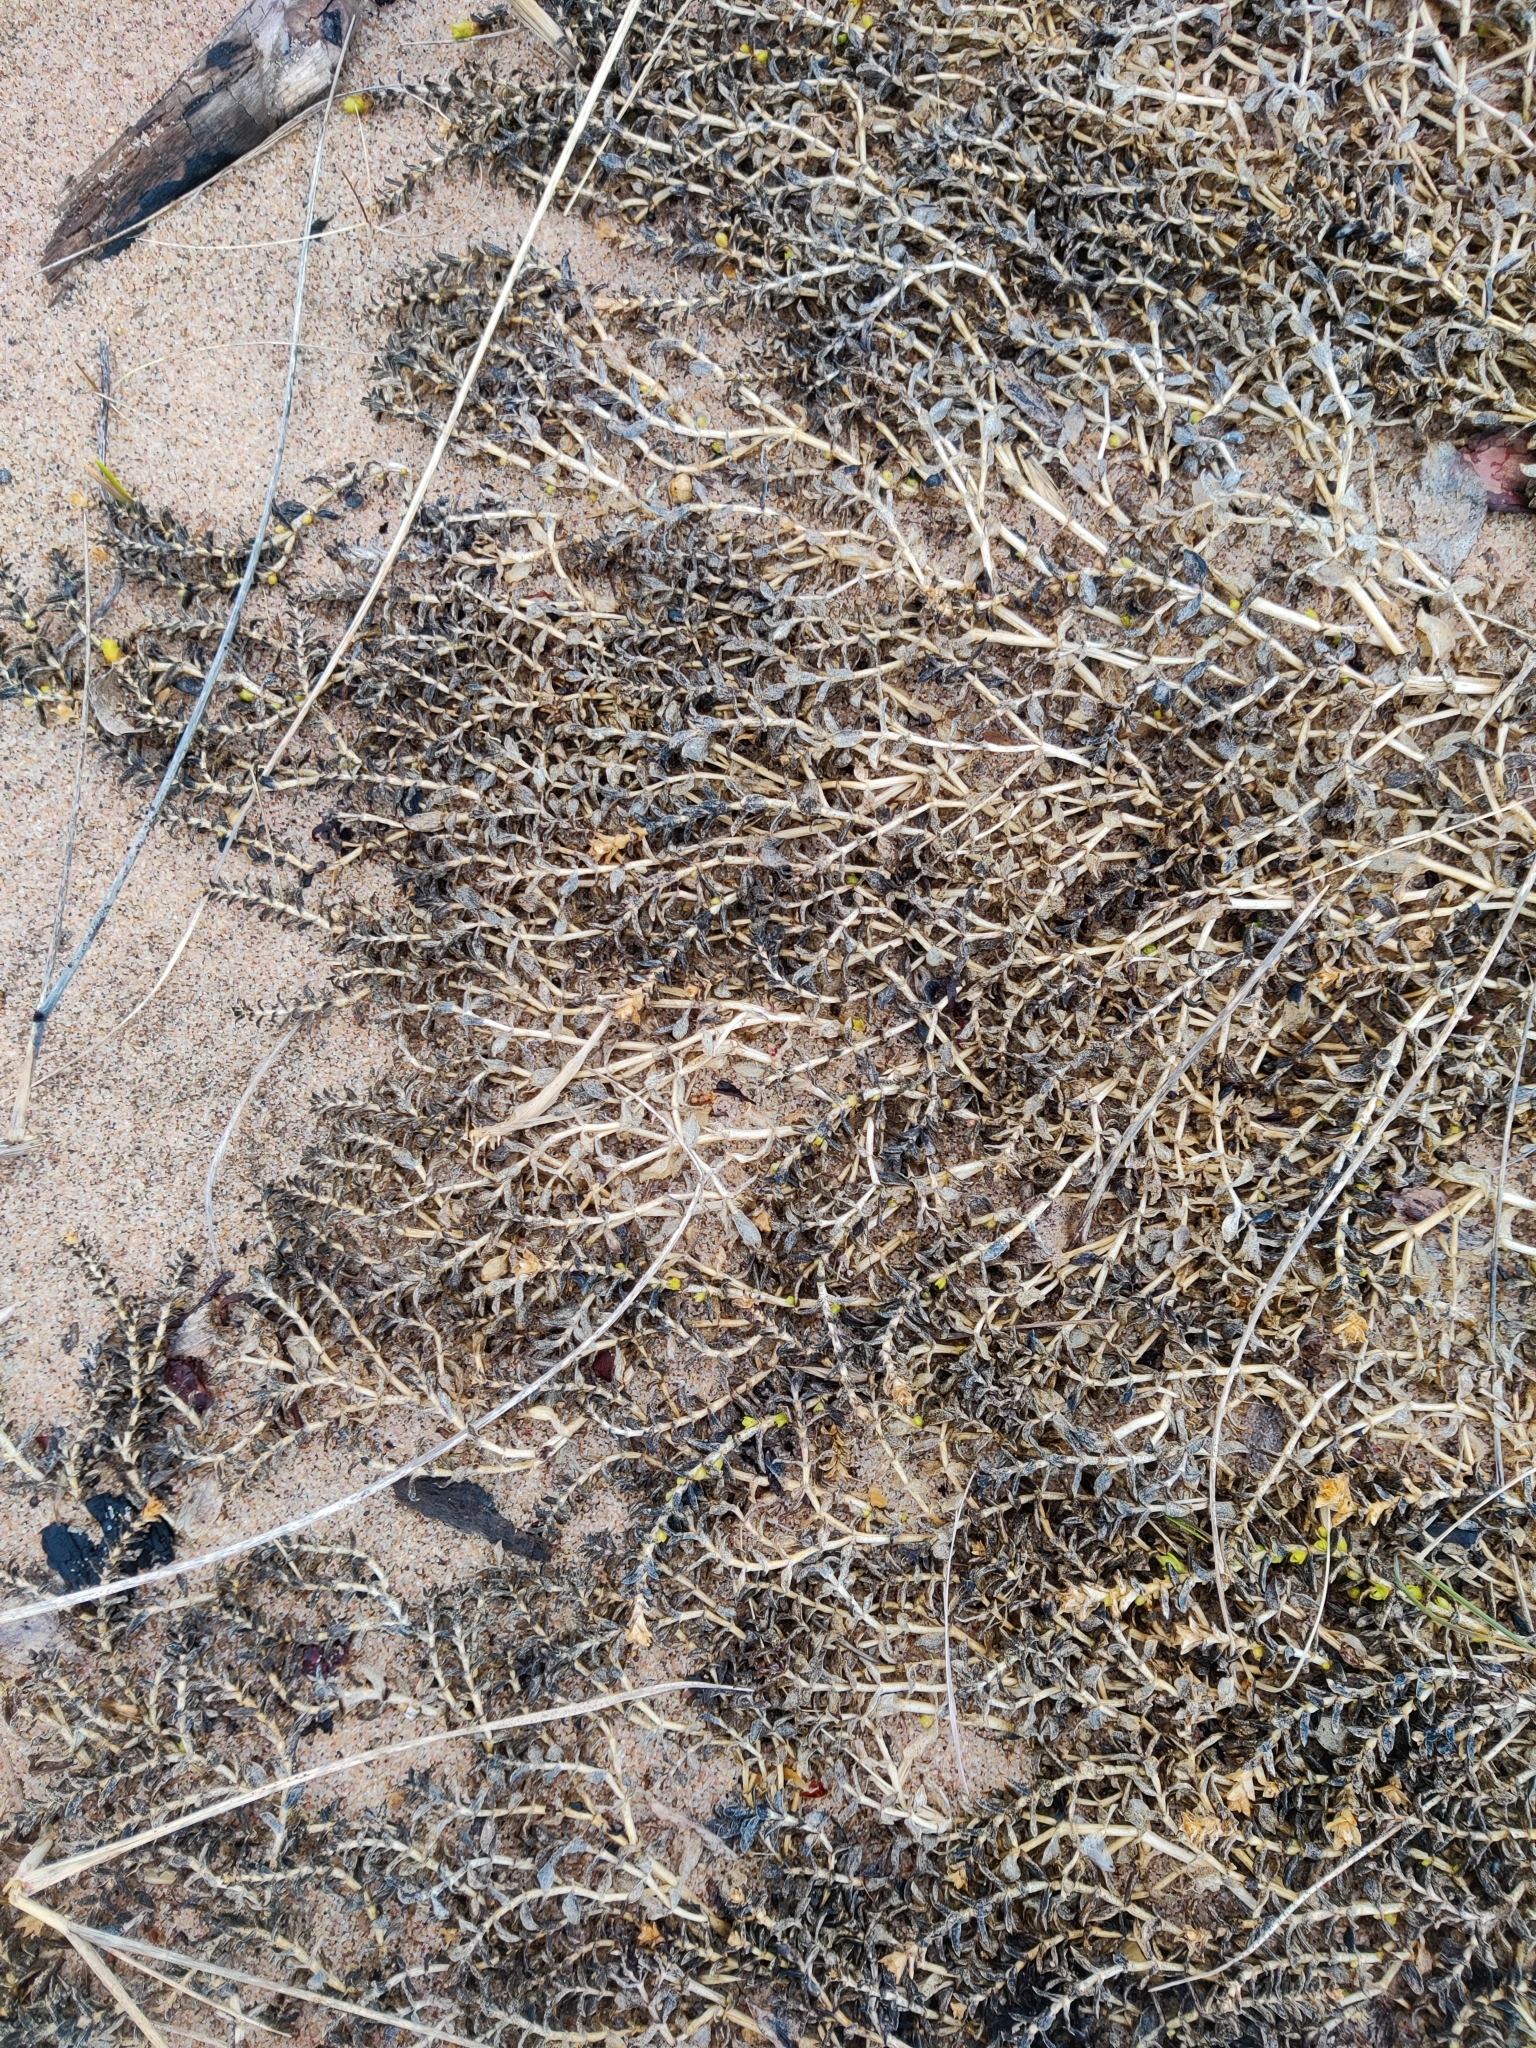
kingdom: Plantae
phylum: Tracheophyta
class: Magnoliopsida
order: Caryophyllales
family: Caryophyllaceae
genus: Honckenya
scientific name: Honckenya peploides
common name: Sea sandwort
